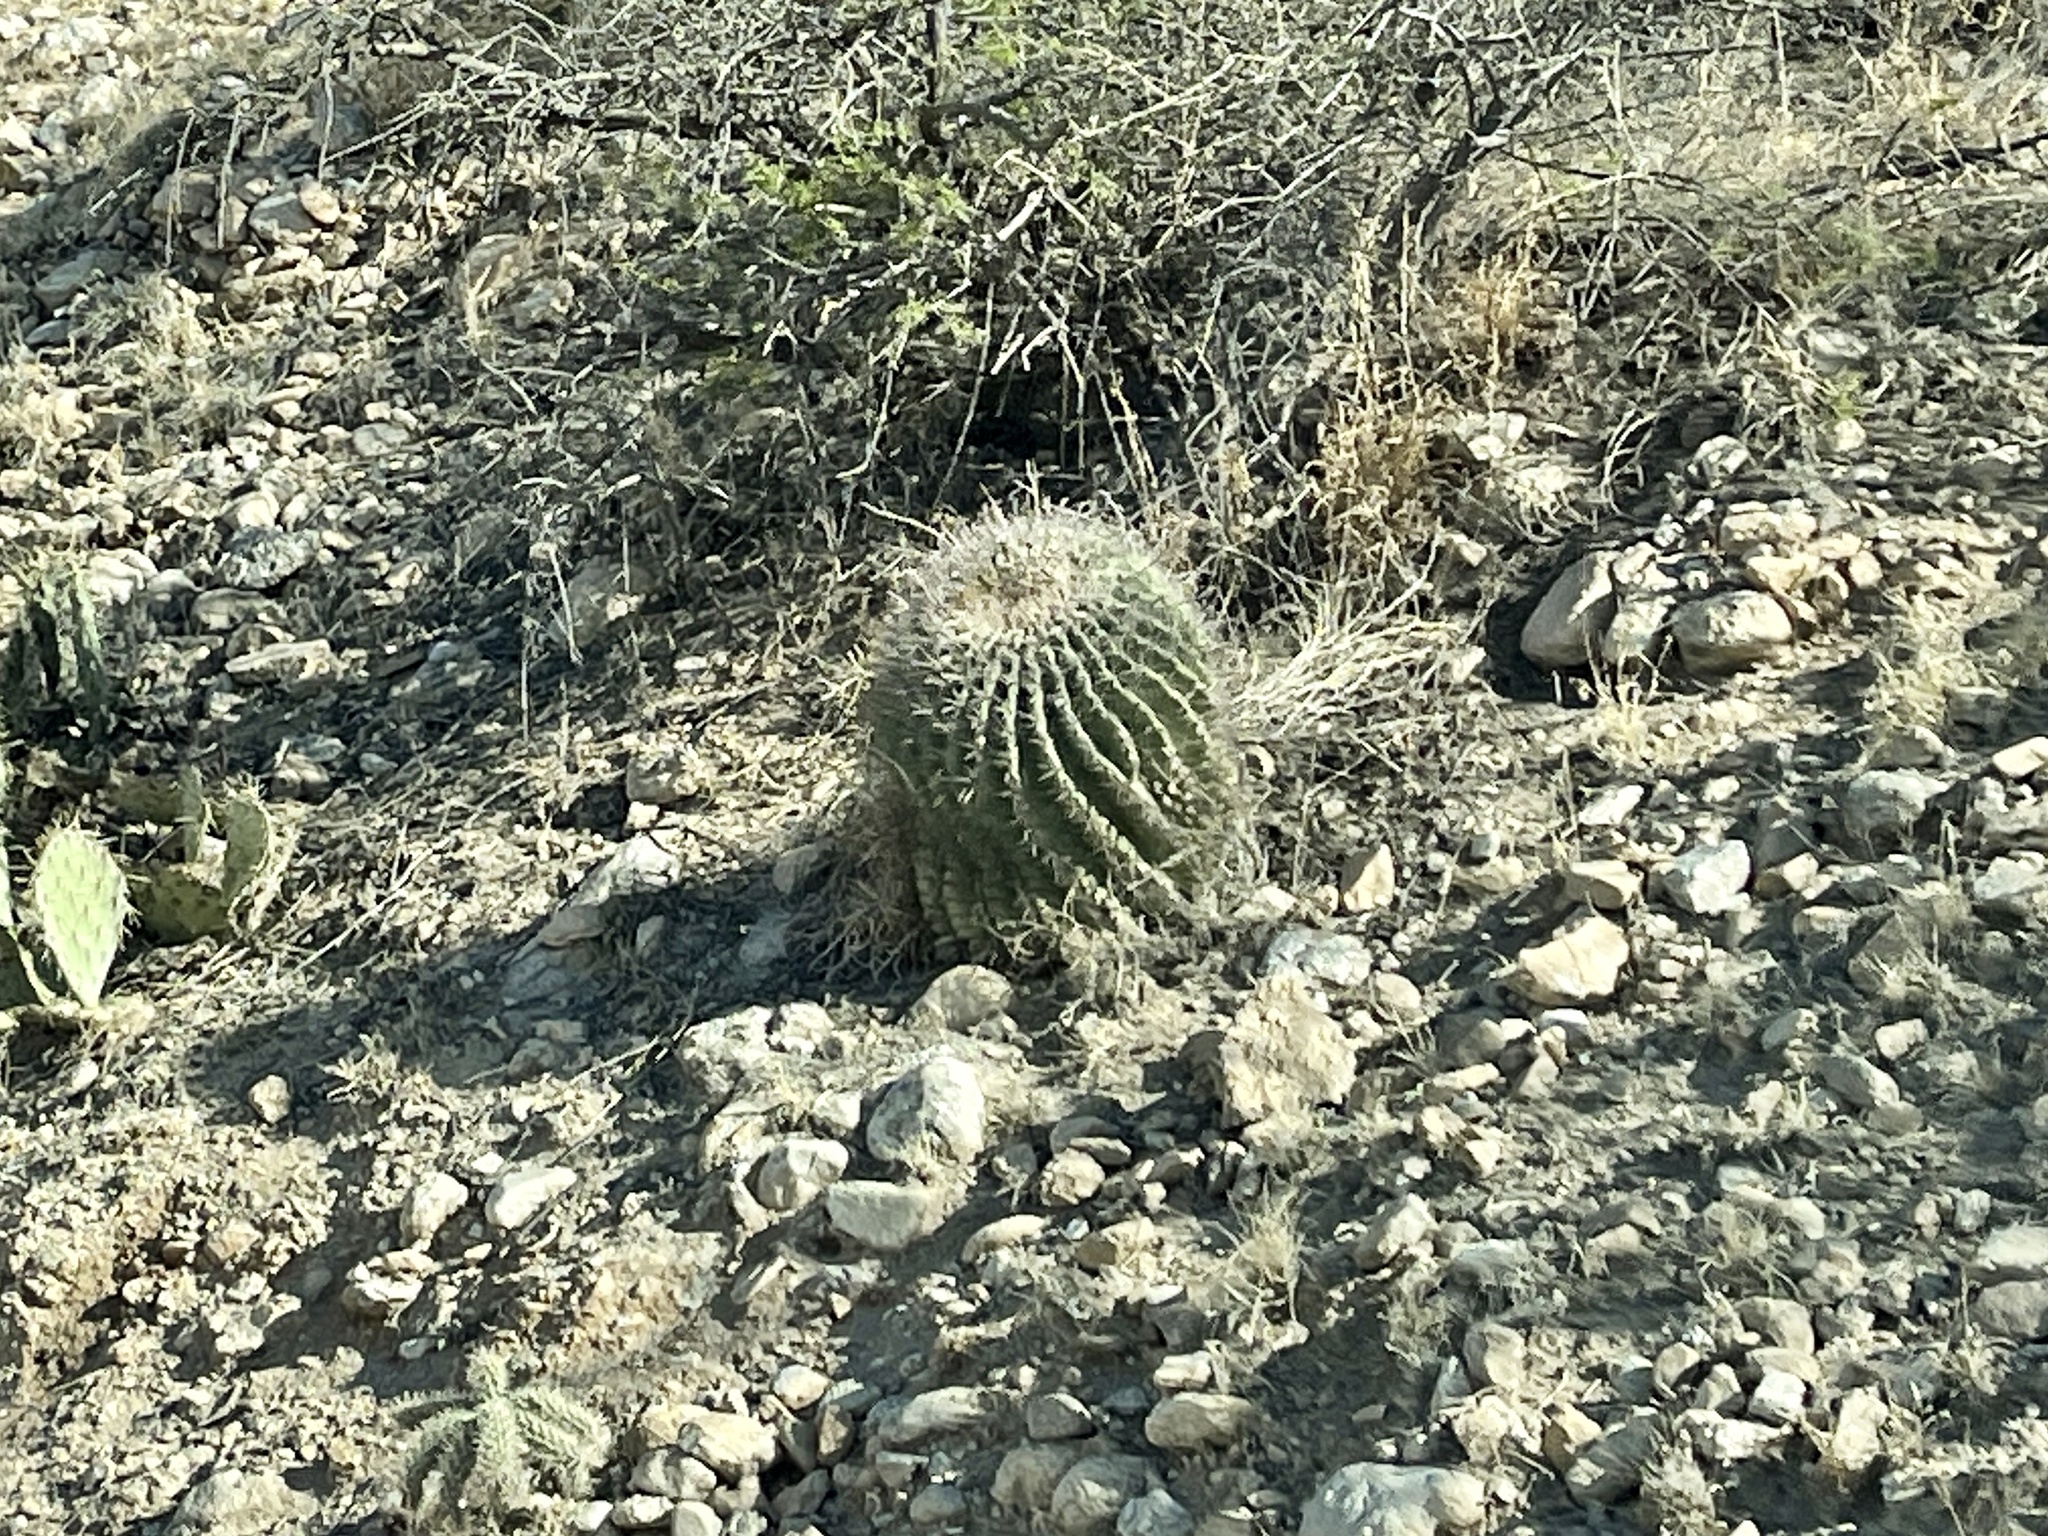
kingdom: Plantae
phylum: Tracheophyta
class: Magnoliopsida
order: Caryophyllales
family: Cactaceae
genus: Ferocactus
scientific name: Ferocactus wislizeni
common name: Candy barrel cactus
